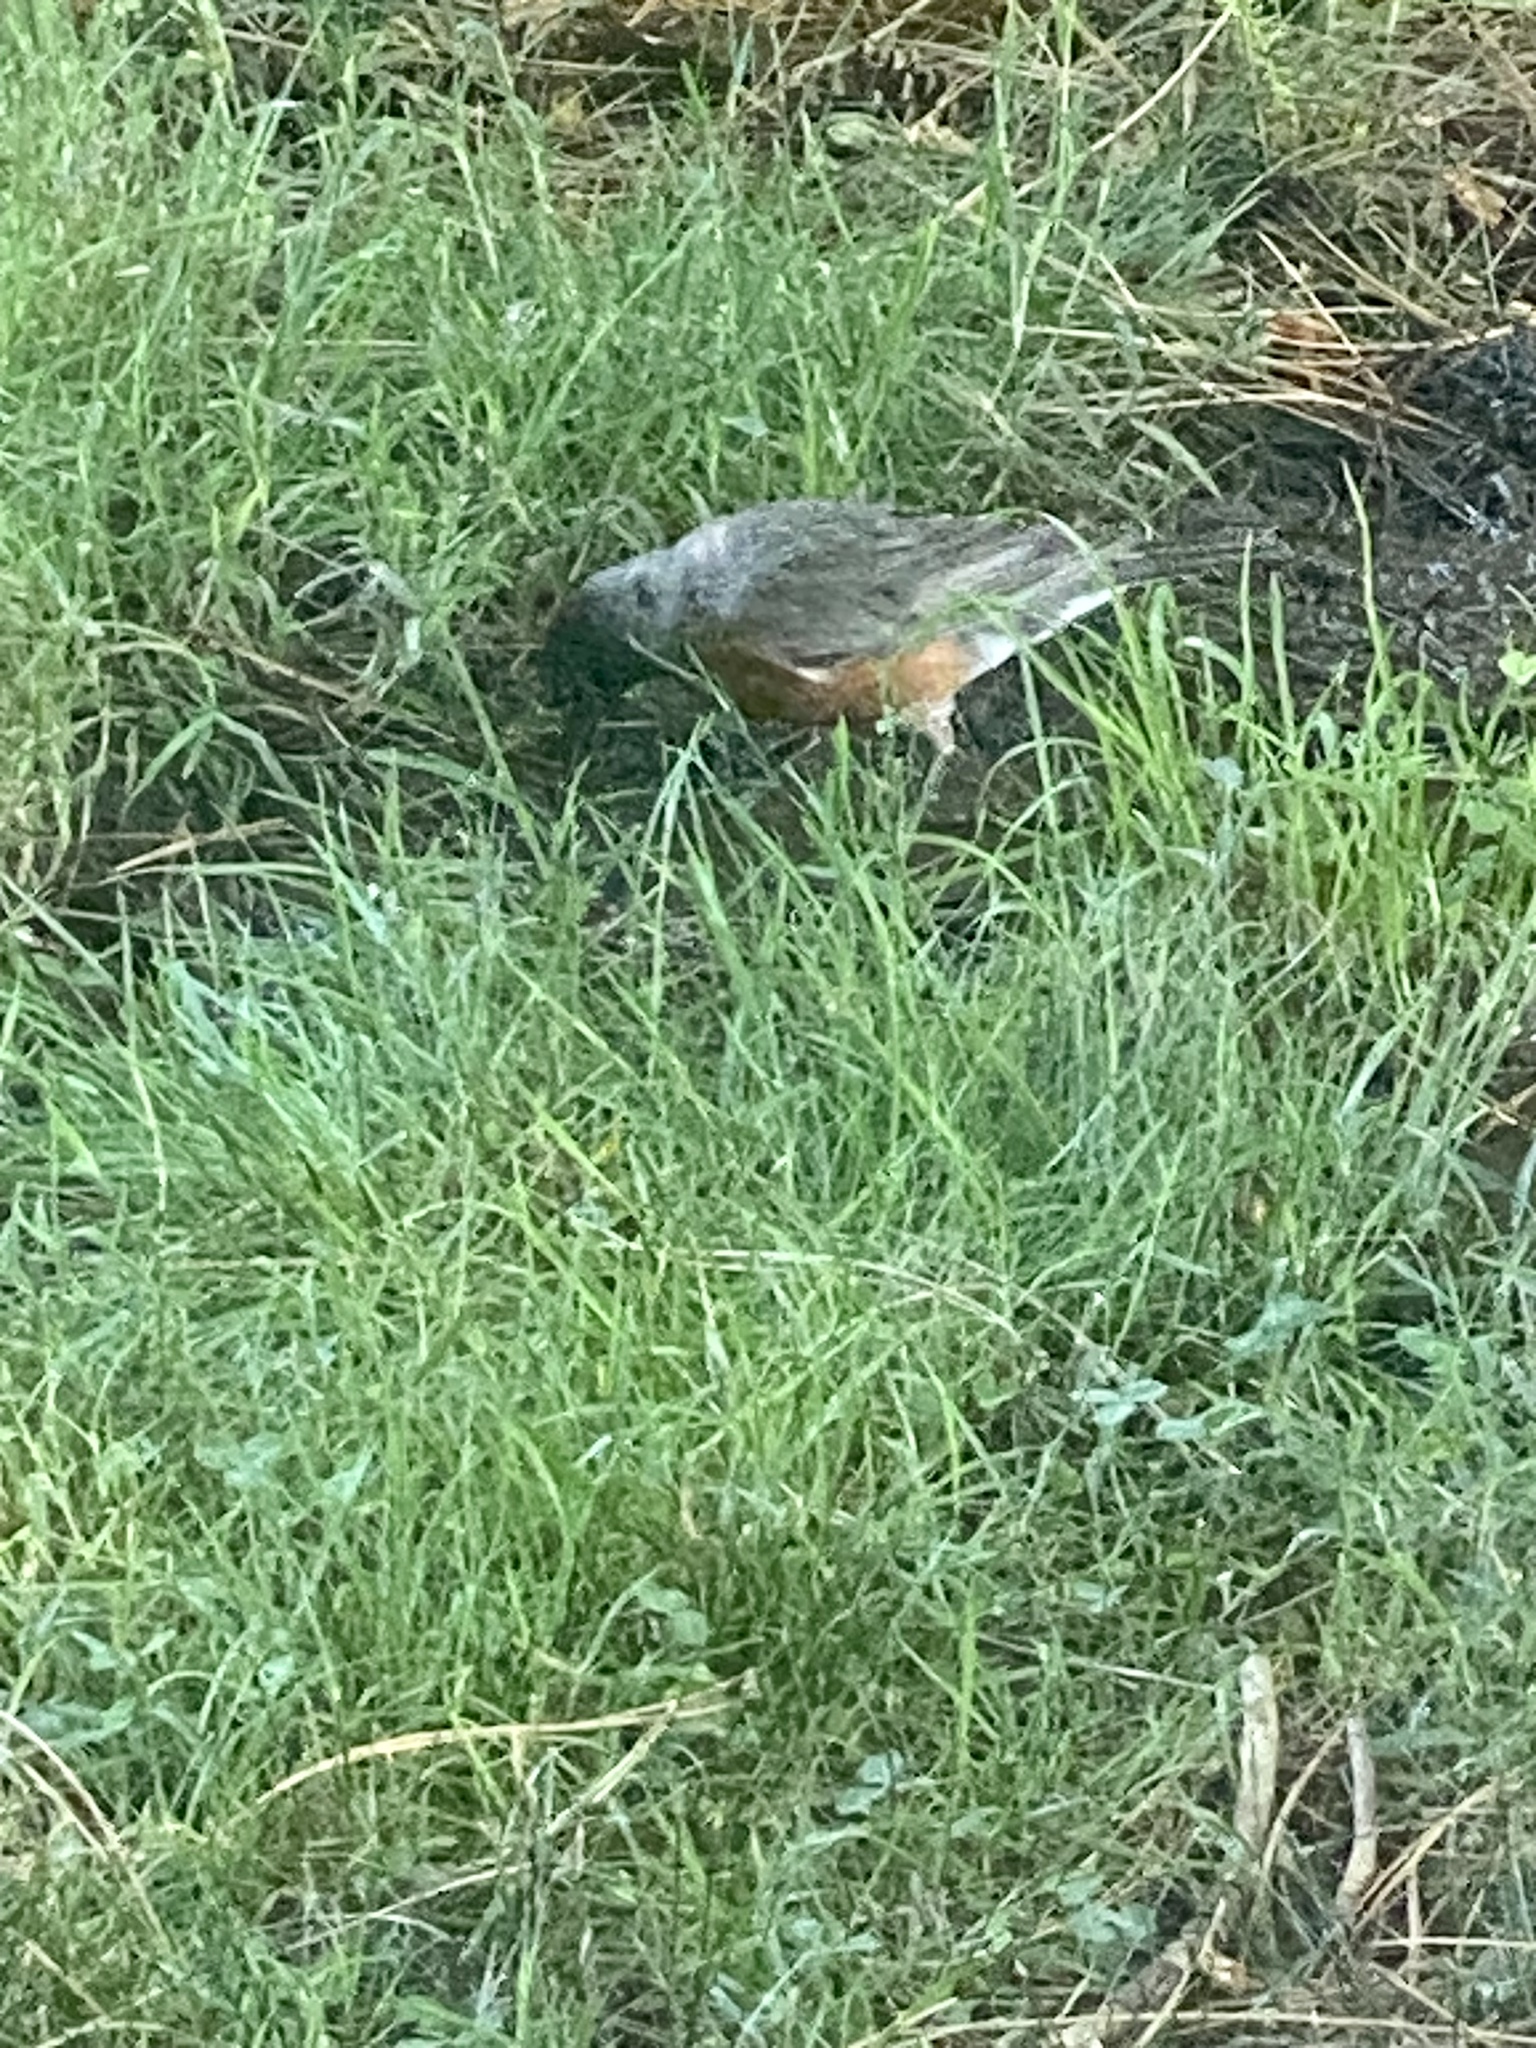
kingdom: Animalia
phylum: Chordata
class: Aves
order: Passeriformes
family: Turdidae
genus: Turdus
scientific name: Turdus migratorius
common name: American robin
